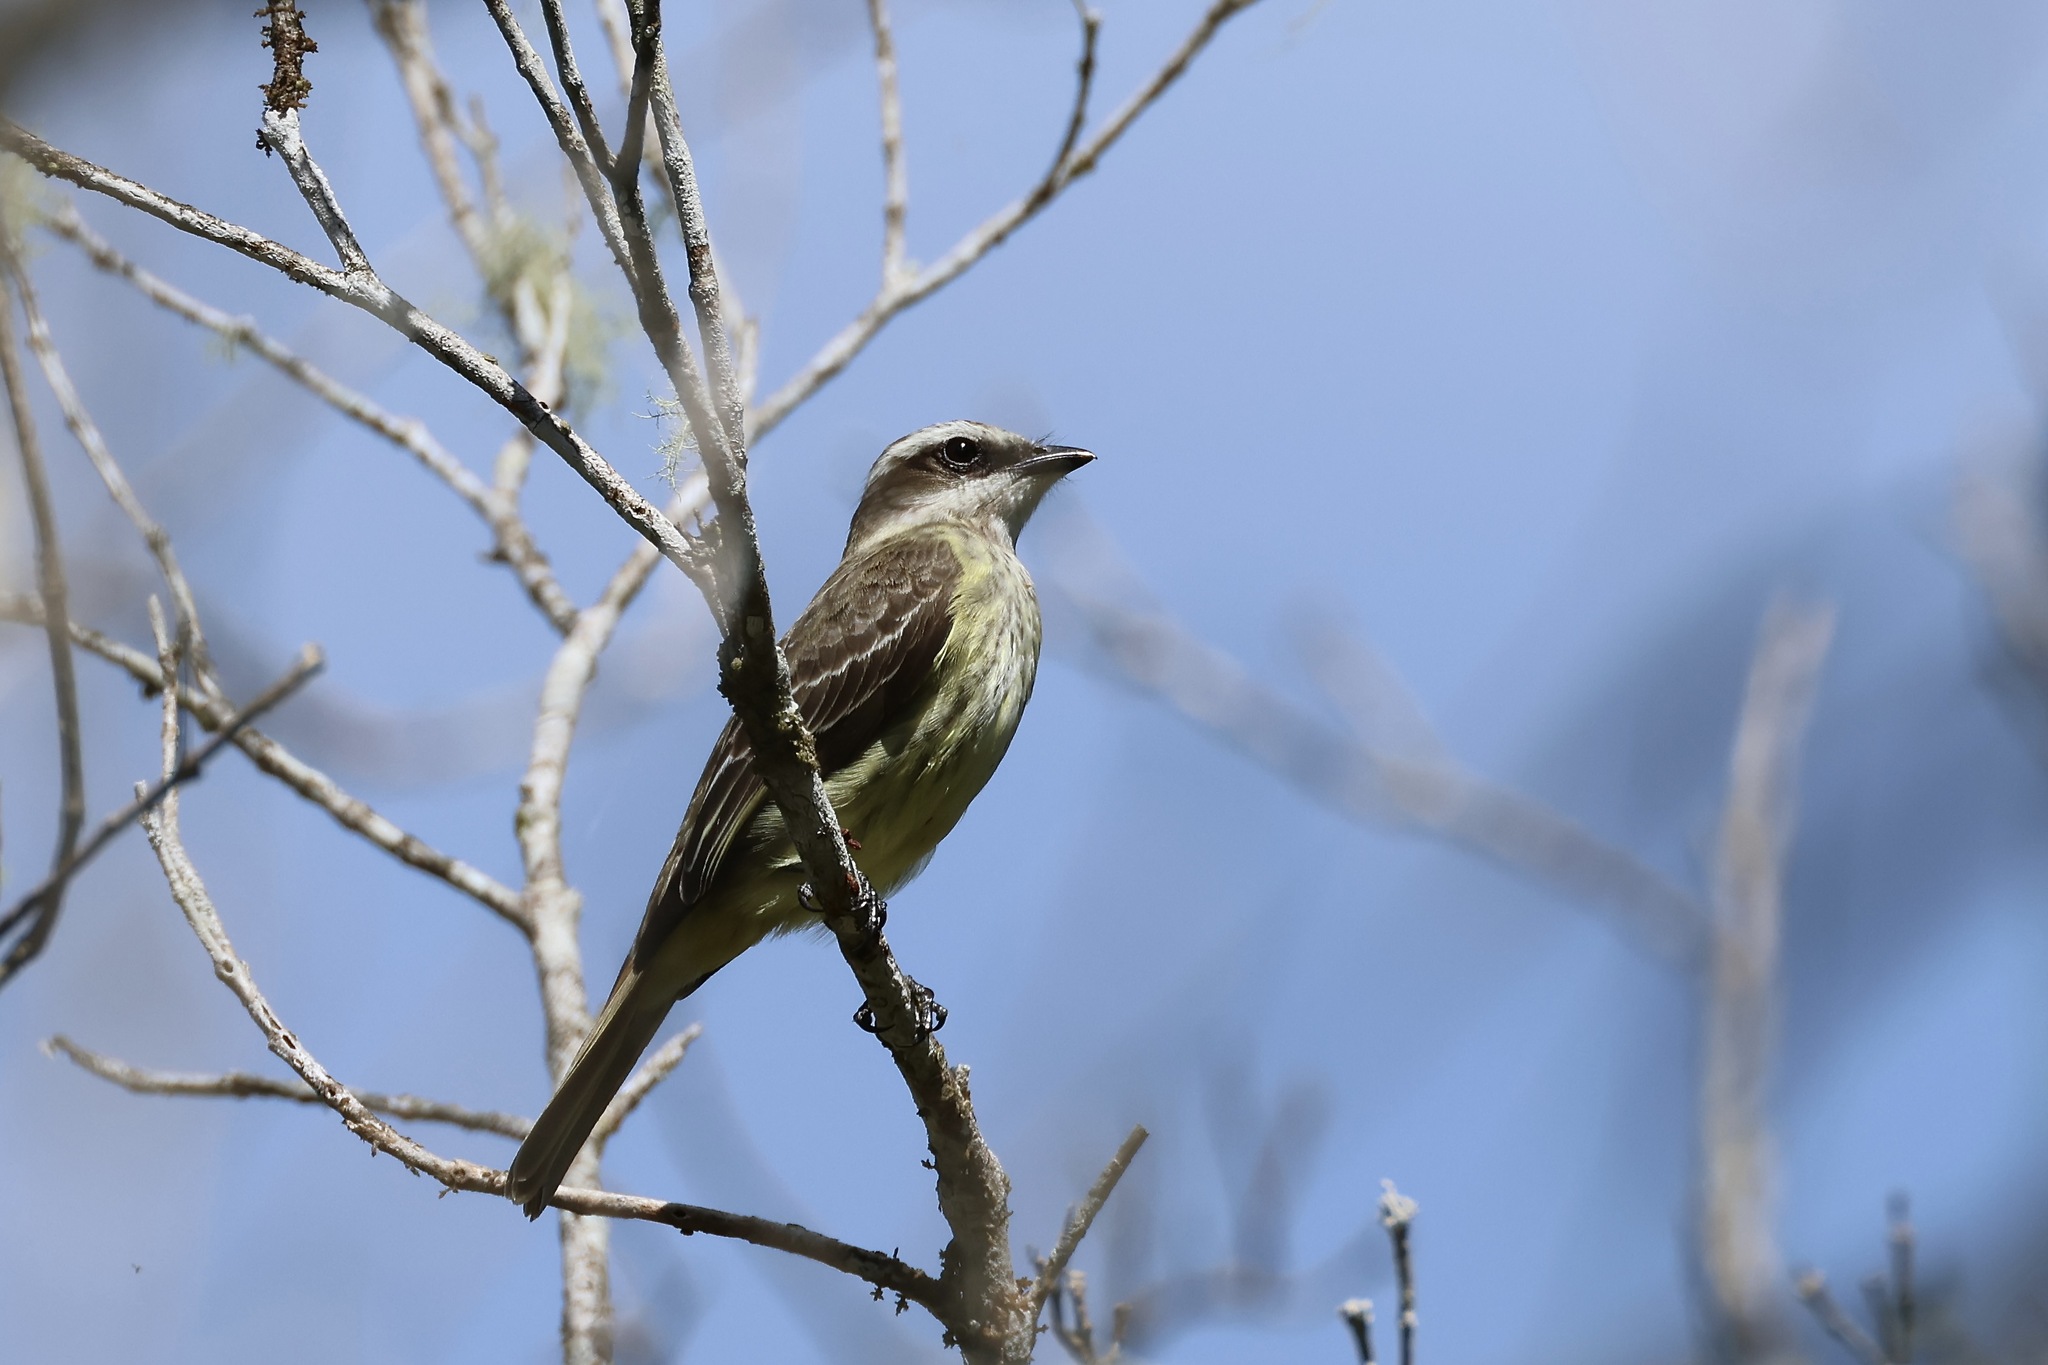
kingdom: Animalia
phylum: Chordata
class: Aves
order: Passeriformes
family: Tyrannidae
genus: Legatus
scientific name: Legatus leucophaius
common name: Piratic flycatcher
